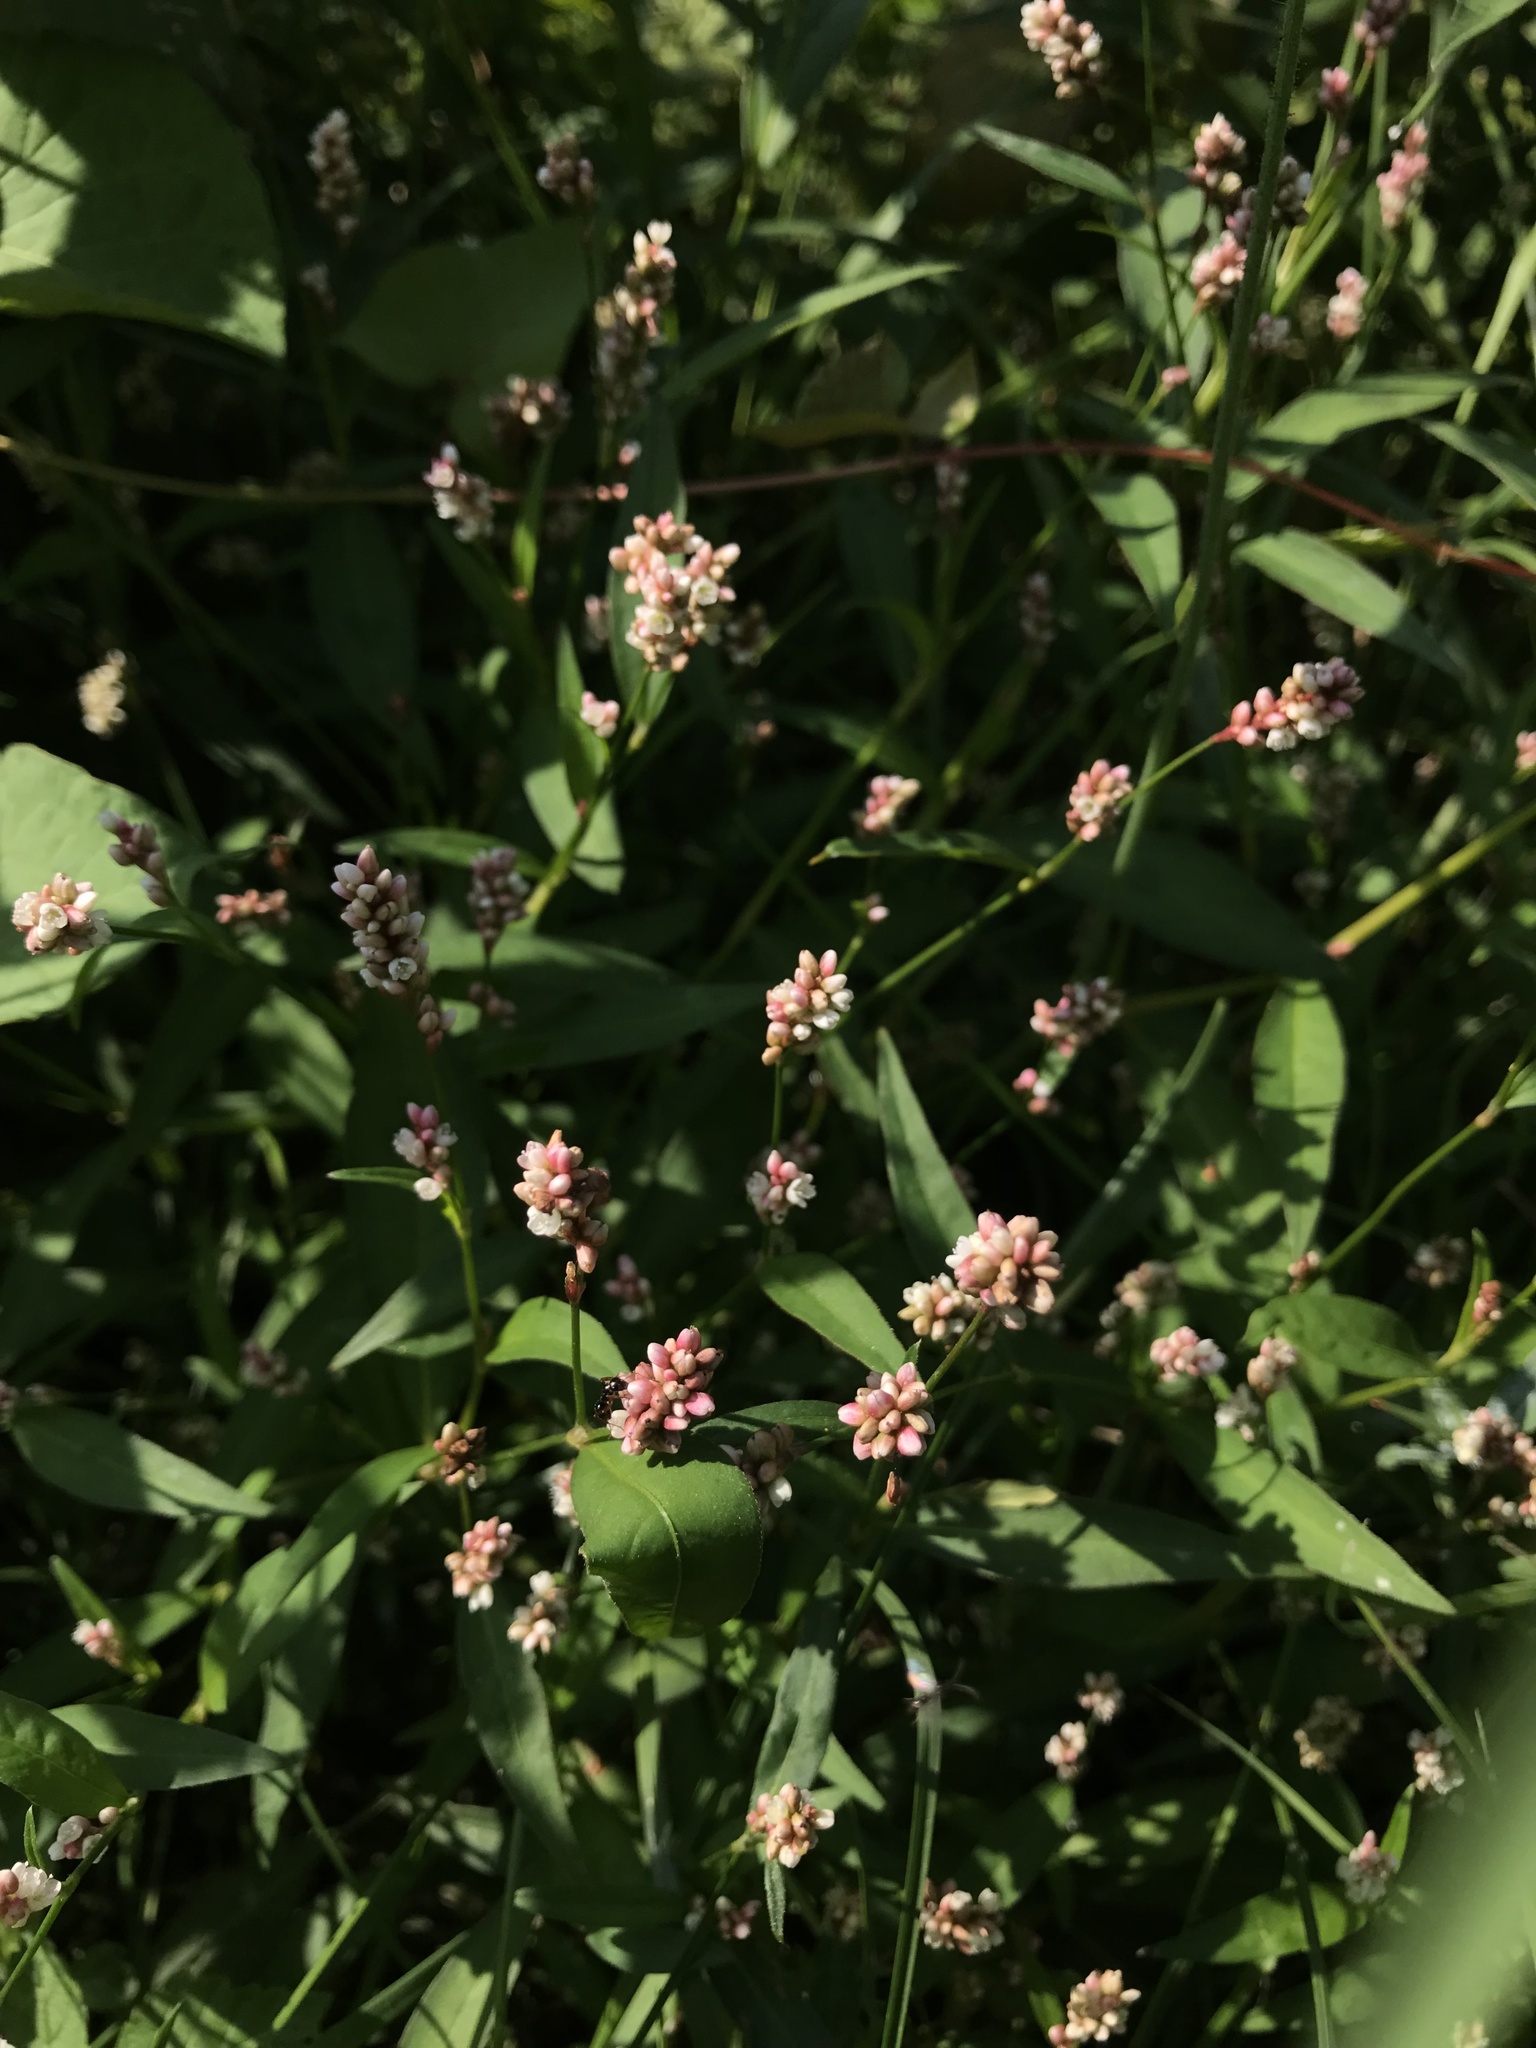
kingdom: Plantae
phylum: Tracheophyta
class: Magnoliopsida
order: Caryophyllales
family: Polygonaceae
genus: Persicaria
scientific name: Persicaria maculosa
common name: Redshank
